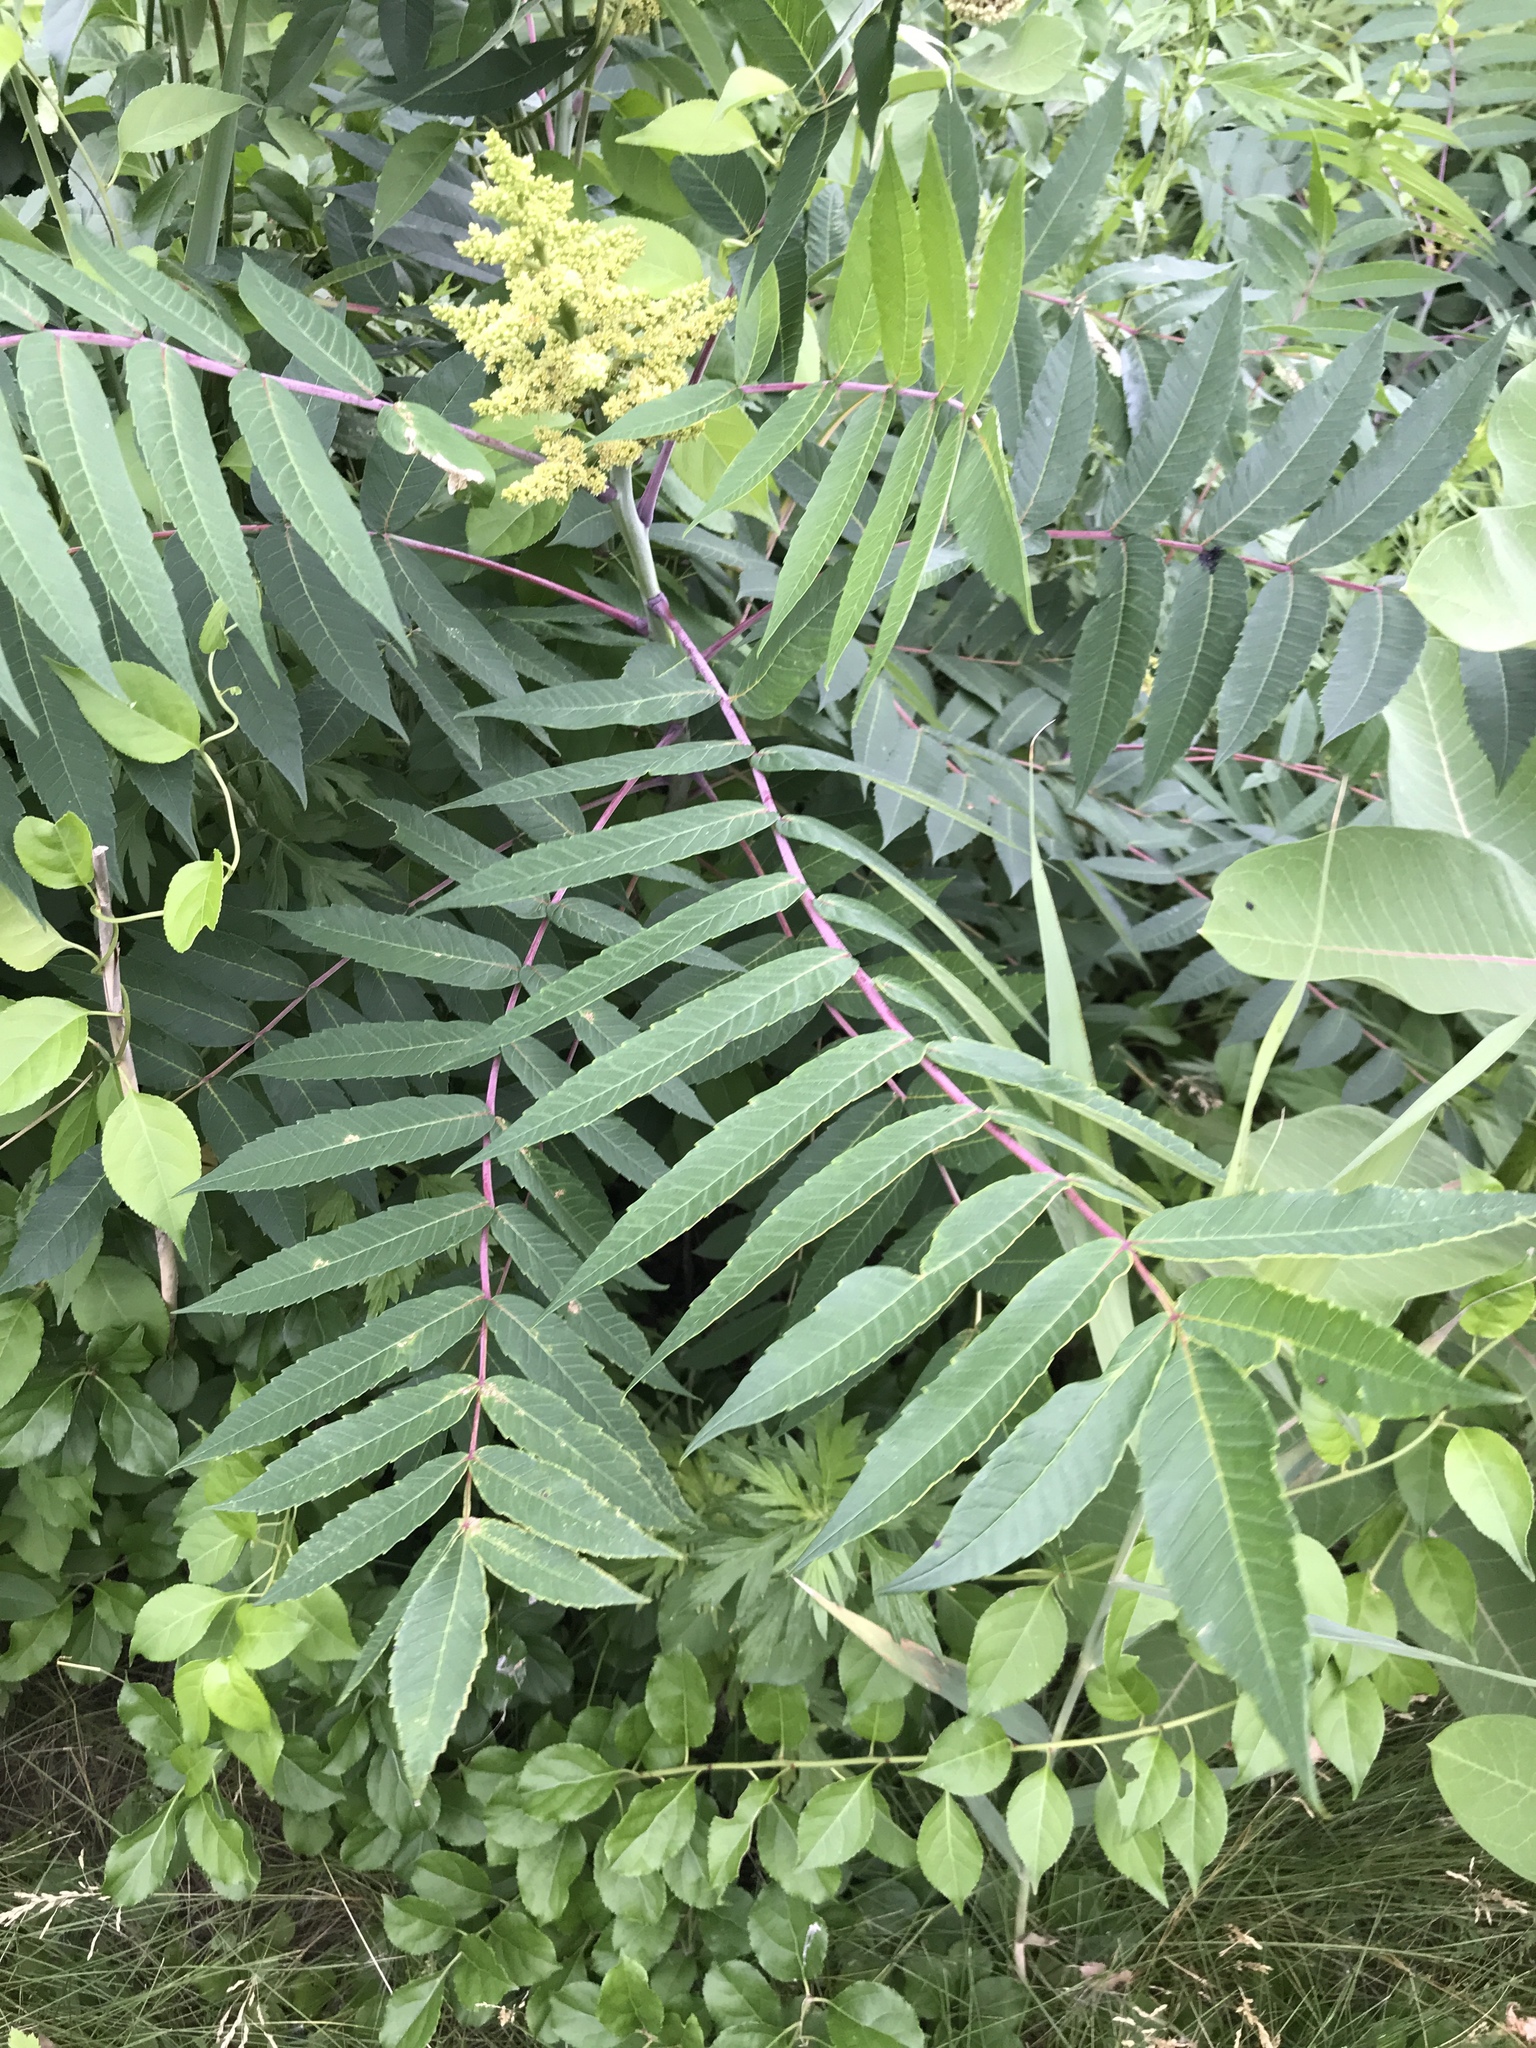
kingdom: Plantae
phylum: Tracheophyta
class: Magnoliopsida
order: Sapindales
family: Anacardiaceae
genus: Rhus
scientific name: Rhus glabra
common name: Scarlet sumac
